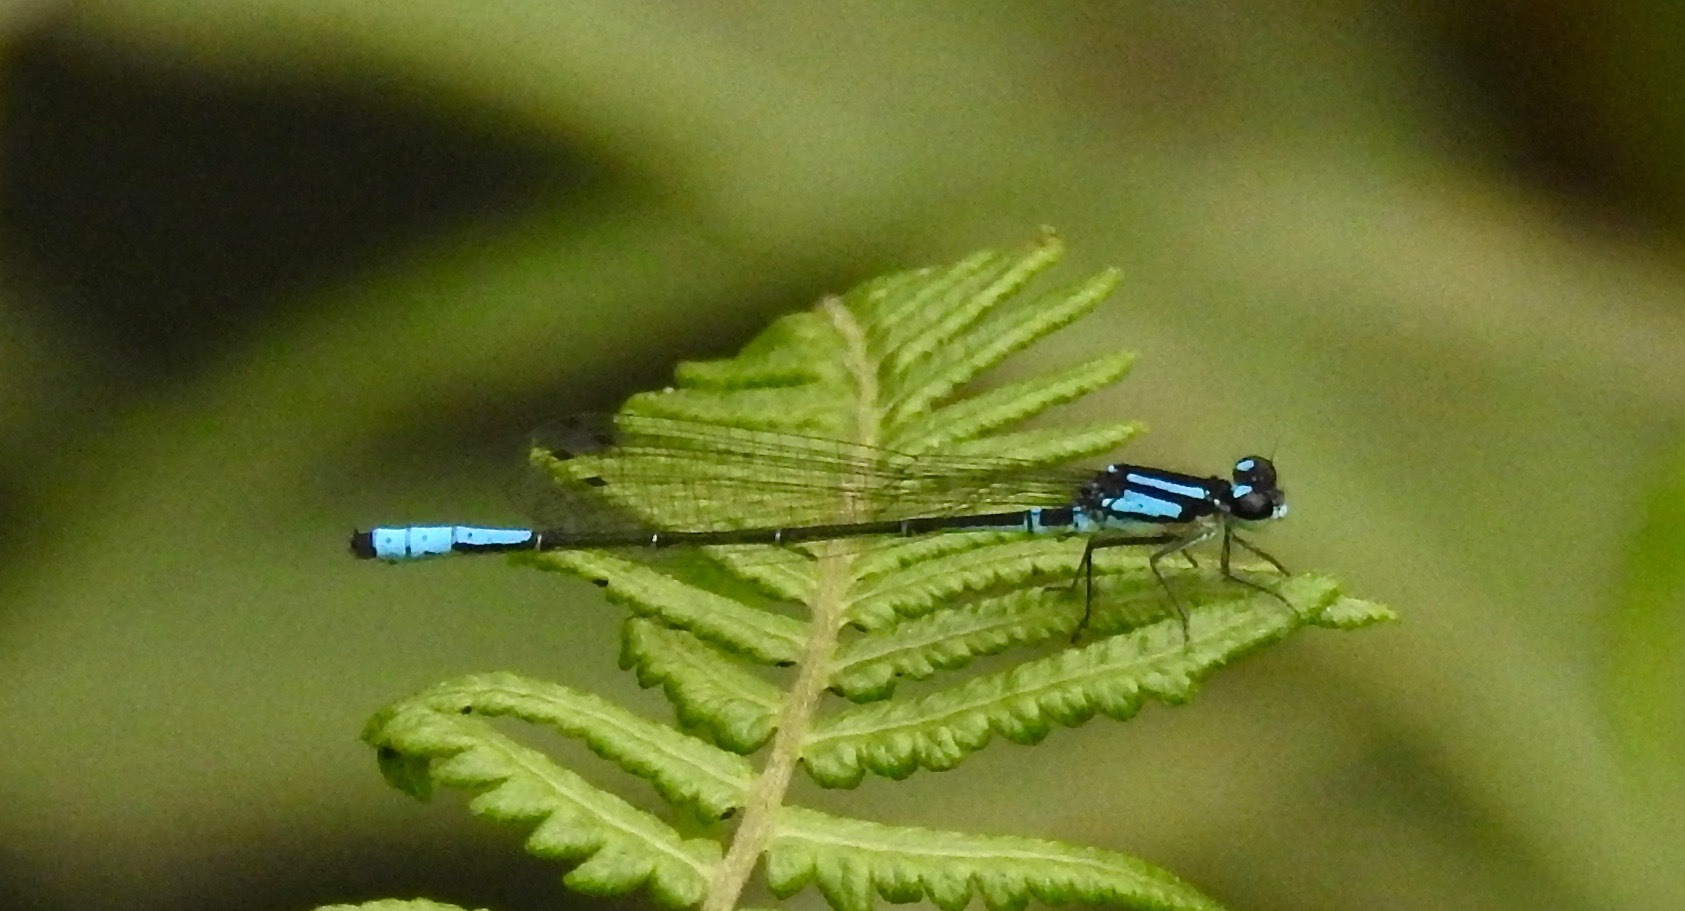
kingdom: Animalia
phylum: Arthropoda
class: Insecta
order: Odonata
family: Coenagrionidae
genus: Mesamphiagrion
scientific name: Mesamphiagrion laterale
